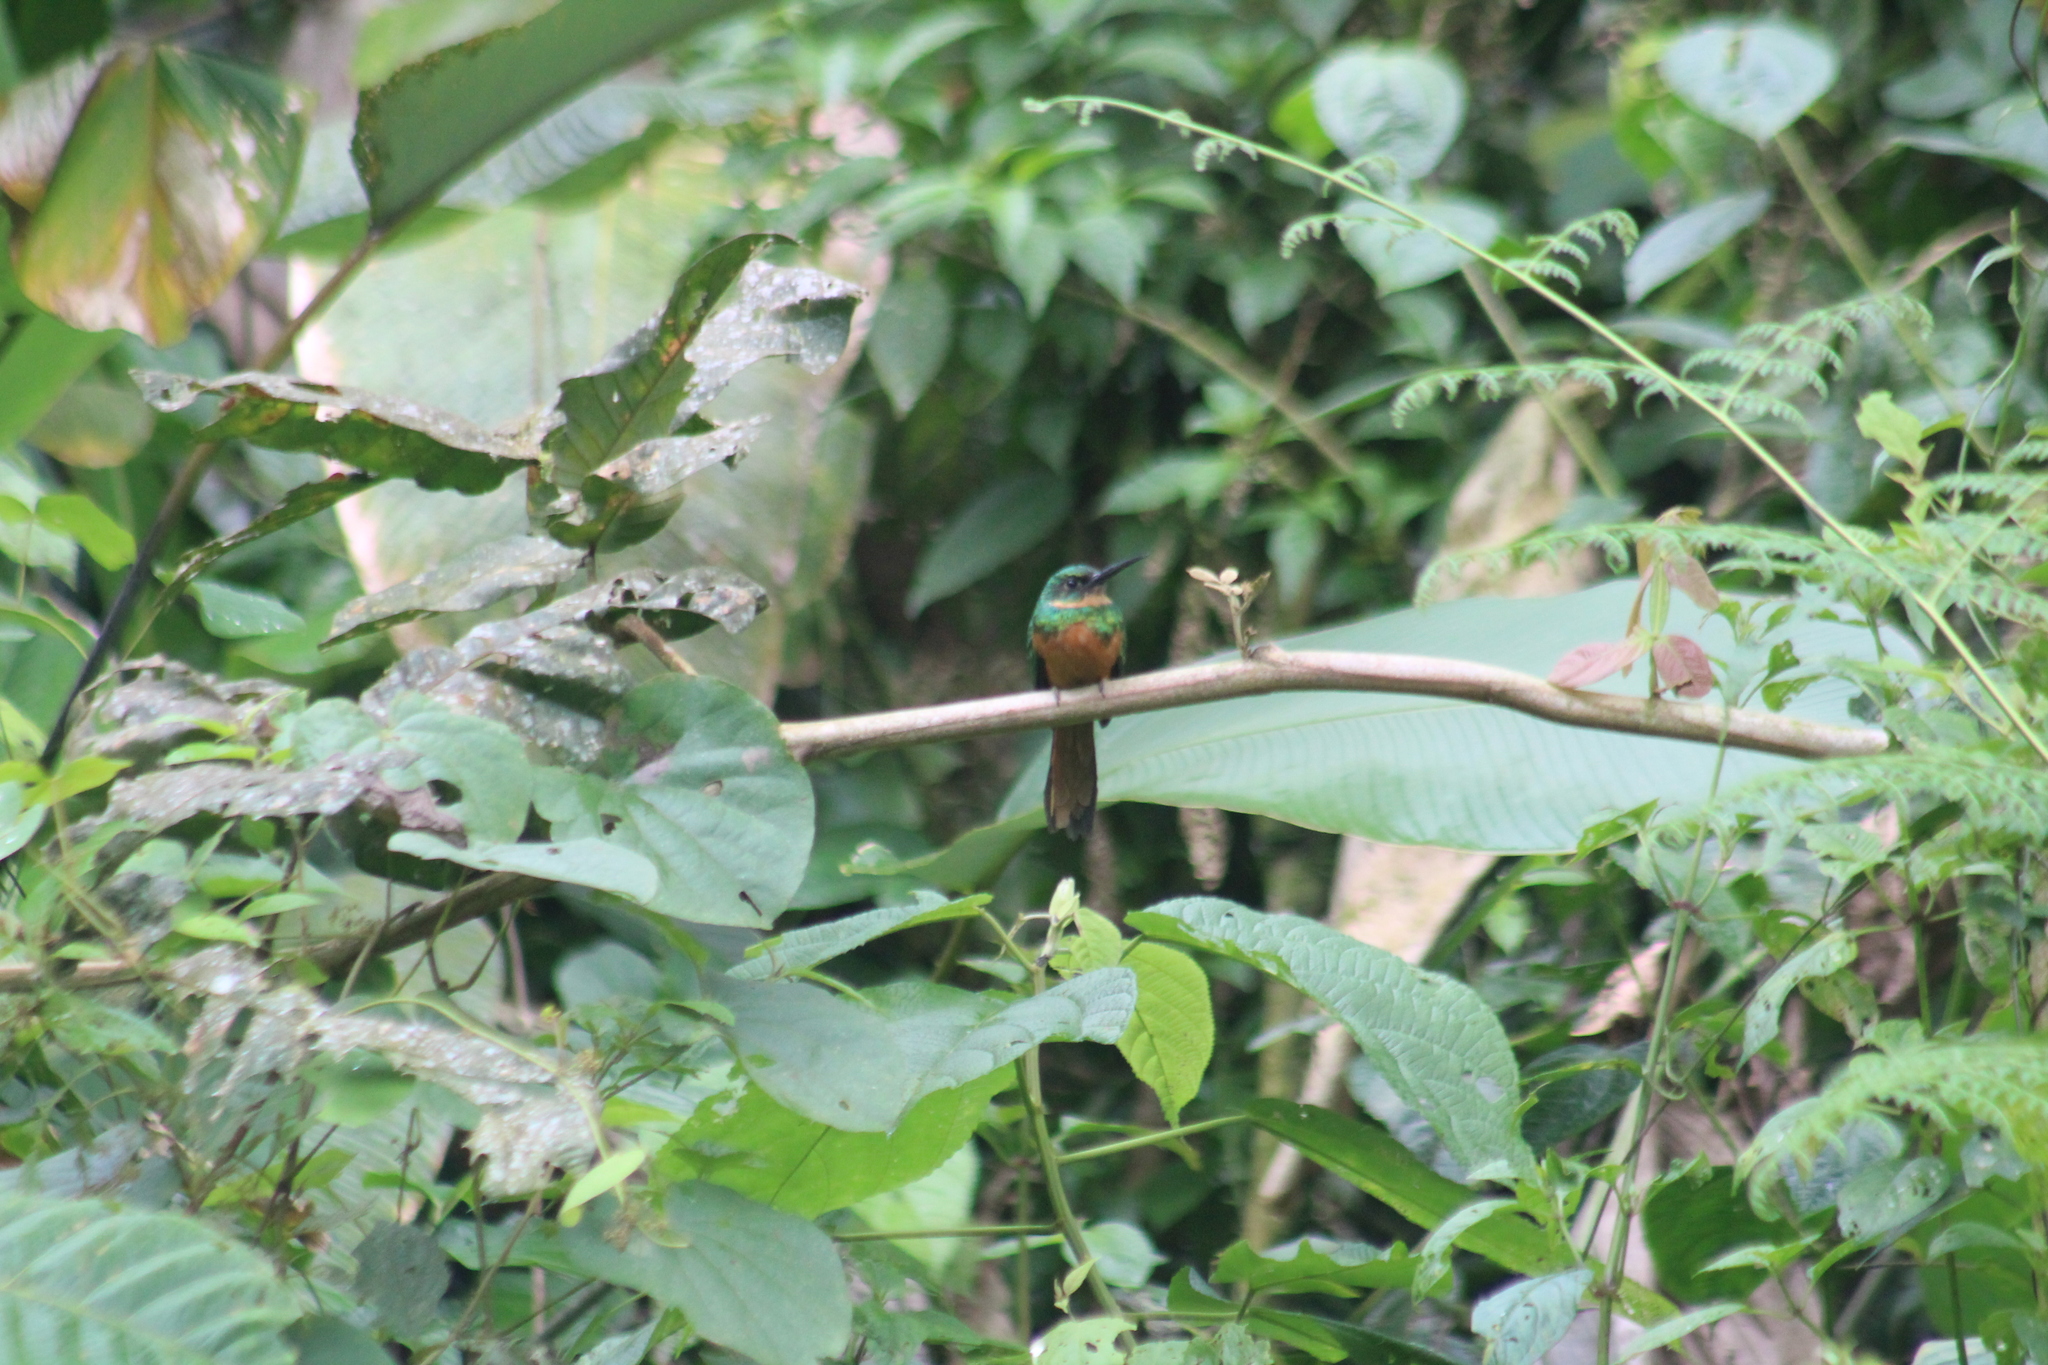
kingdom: Animalia
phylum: Chordata
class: Aves
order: Piciformes
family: Galbulidae
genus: Galbula
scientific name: Galbula ruficauda
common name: Rufous-tailed jacamar
